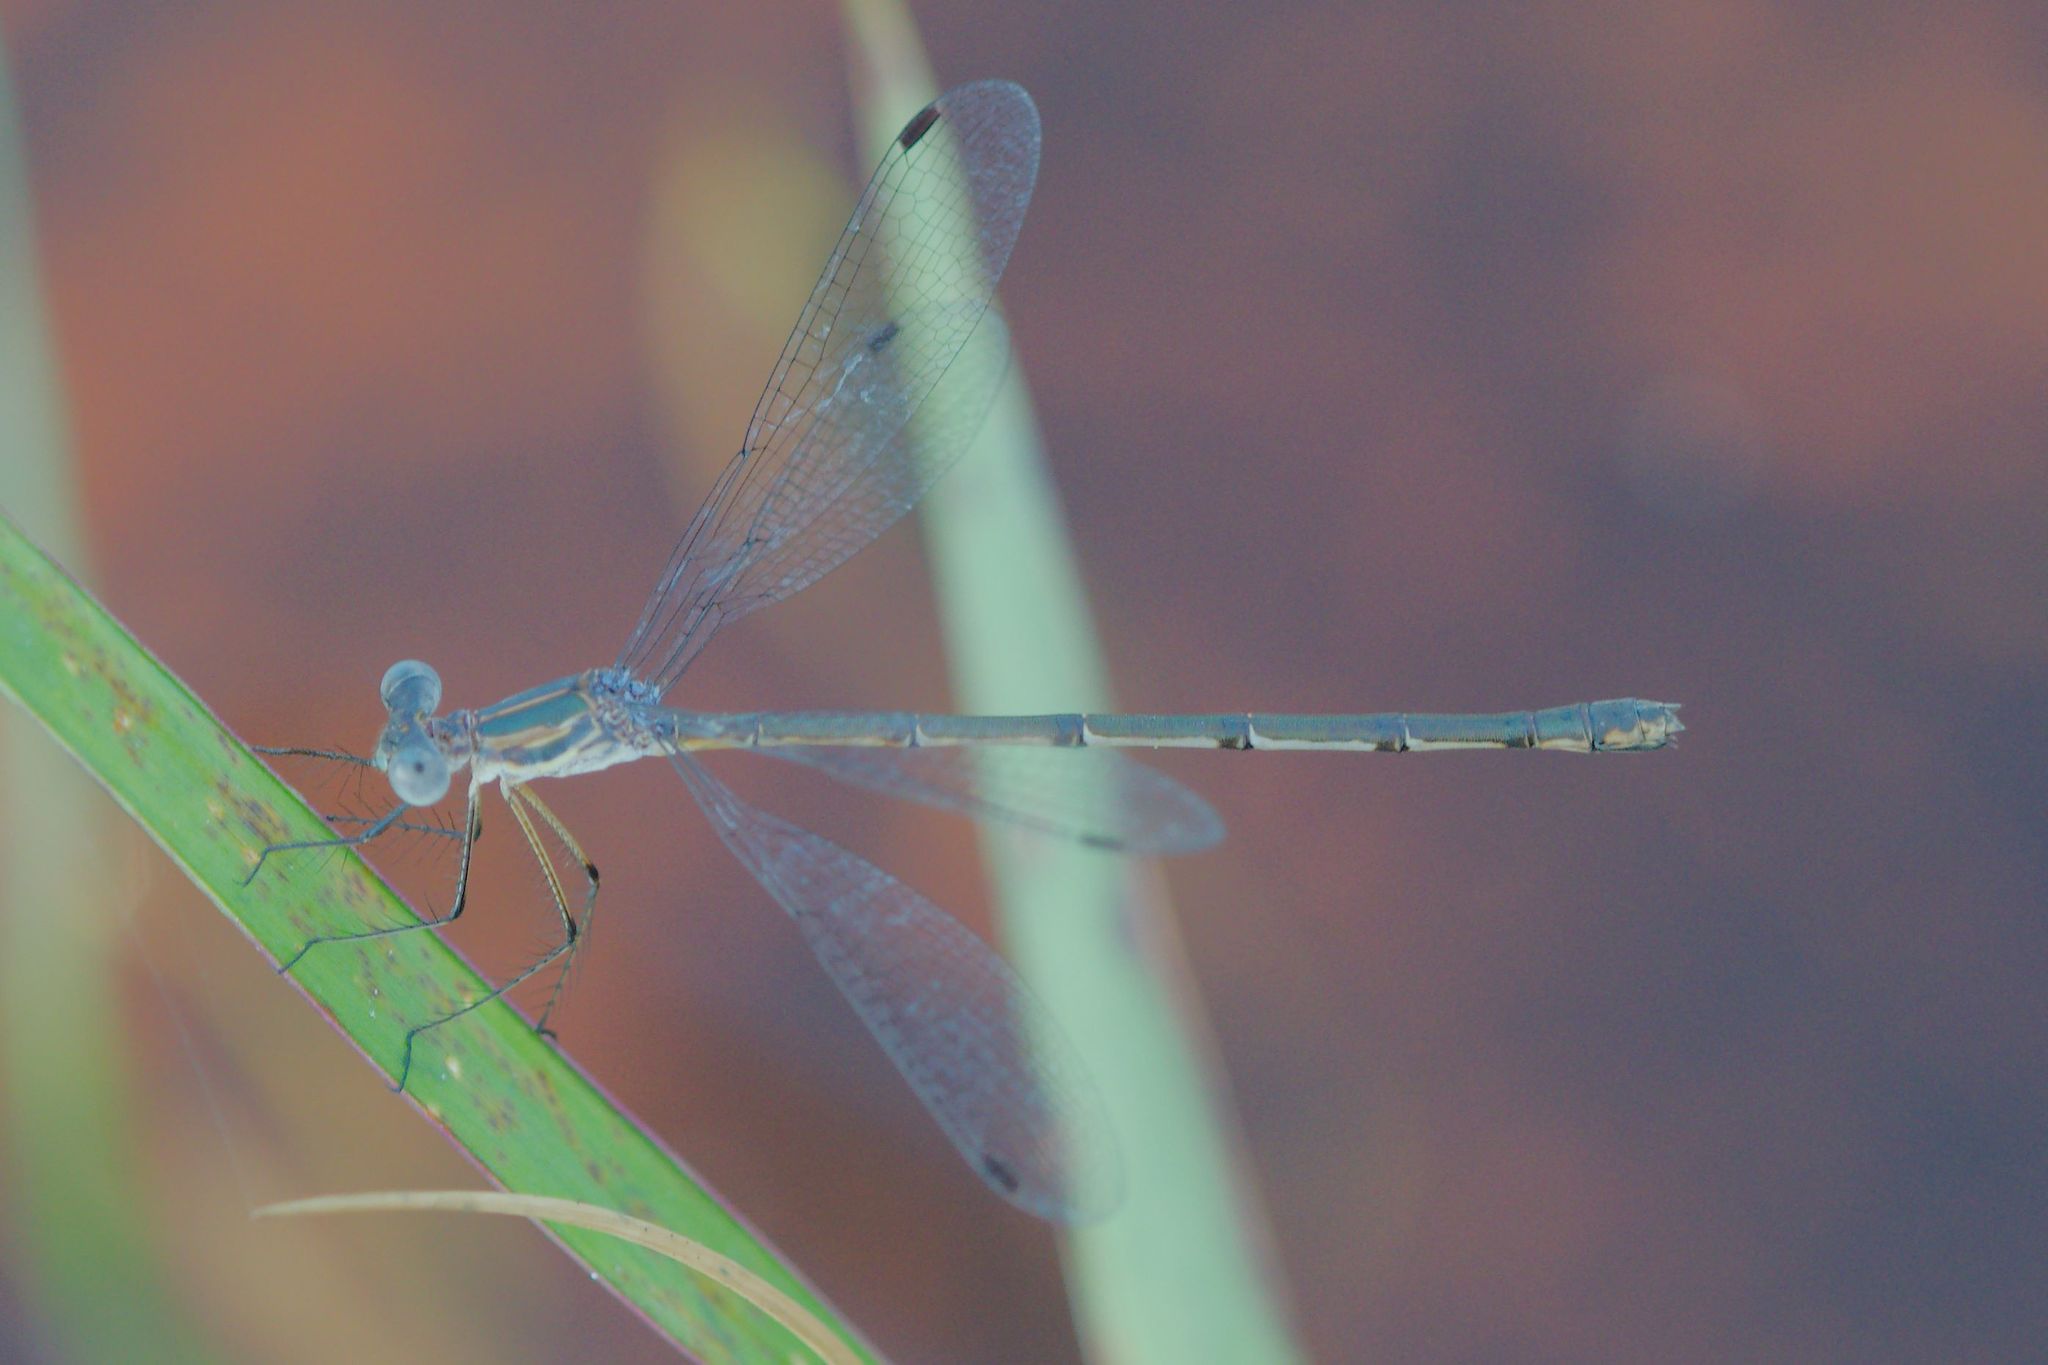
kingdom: Animalia
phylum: Arthropoda
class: Insecta
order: Odonata
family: Lestidae
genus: Lestes
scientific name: Lestes vidua
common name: Carolina spreadwing
